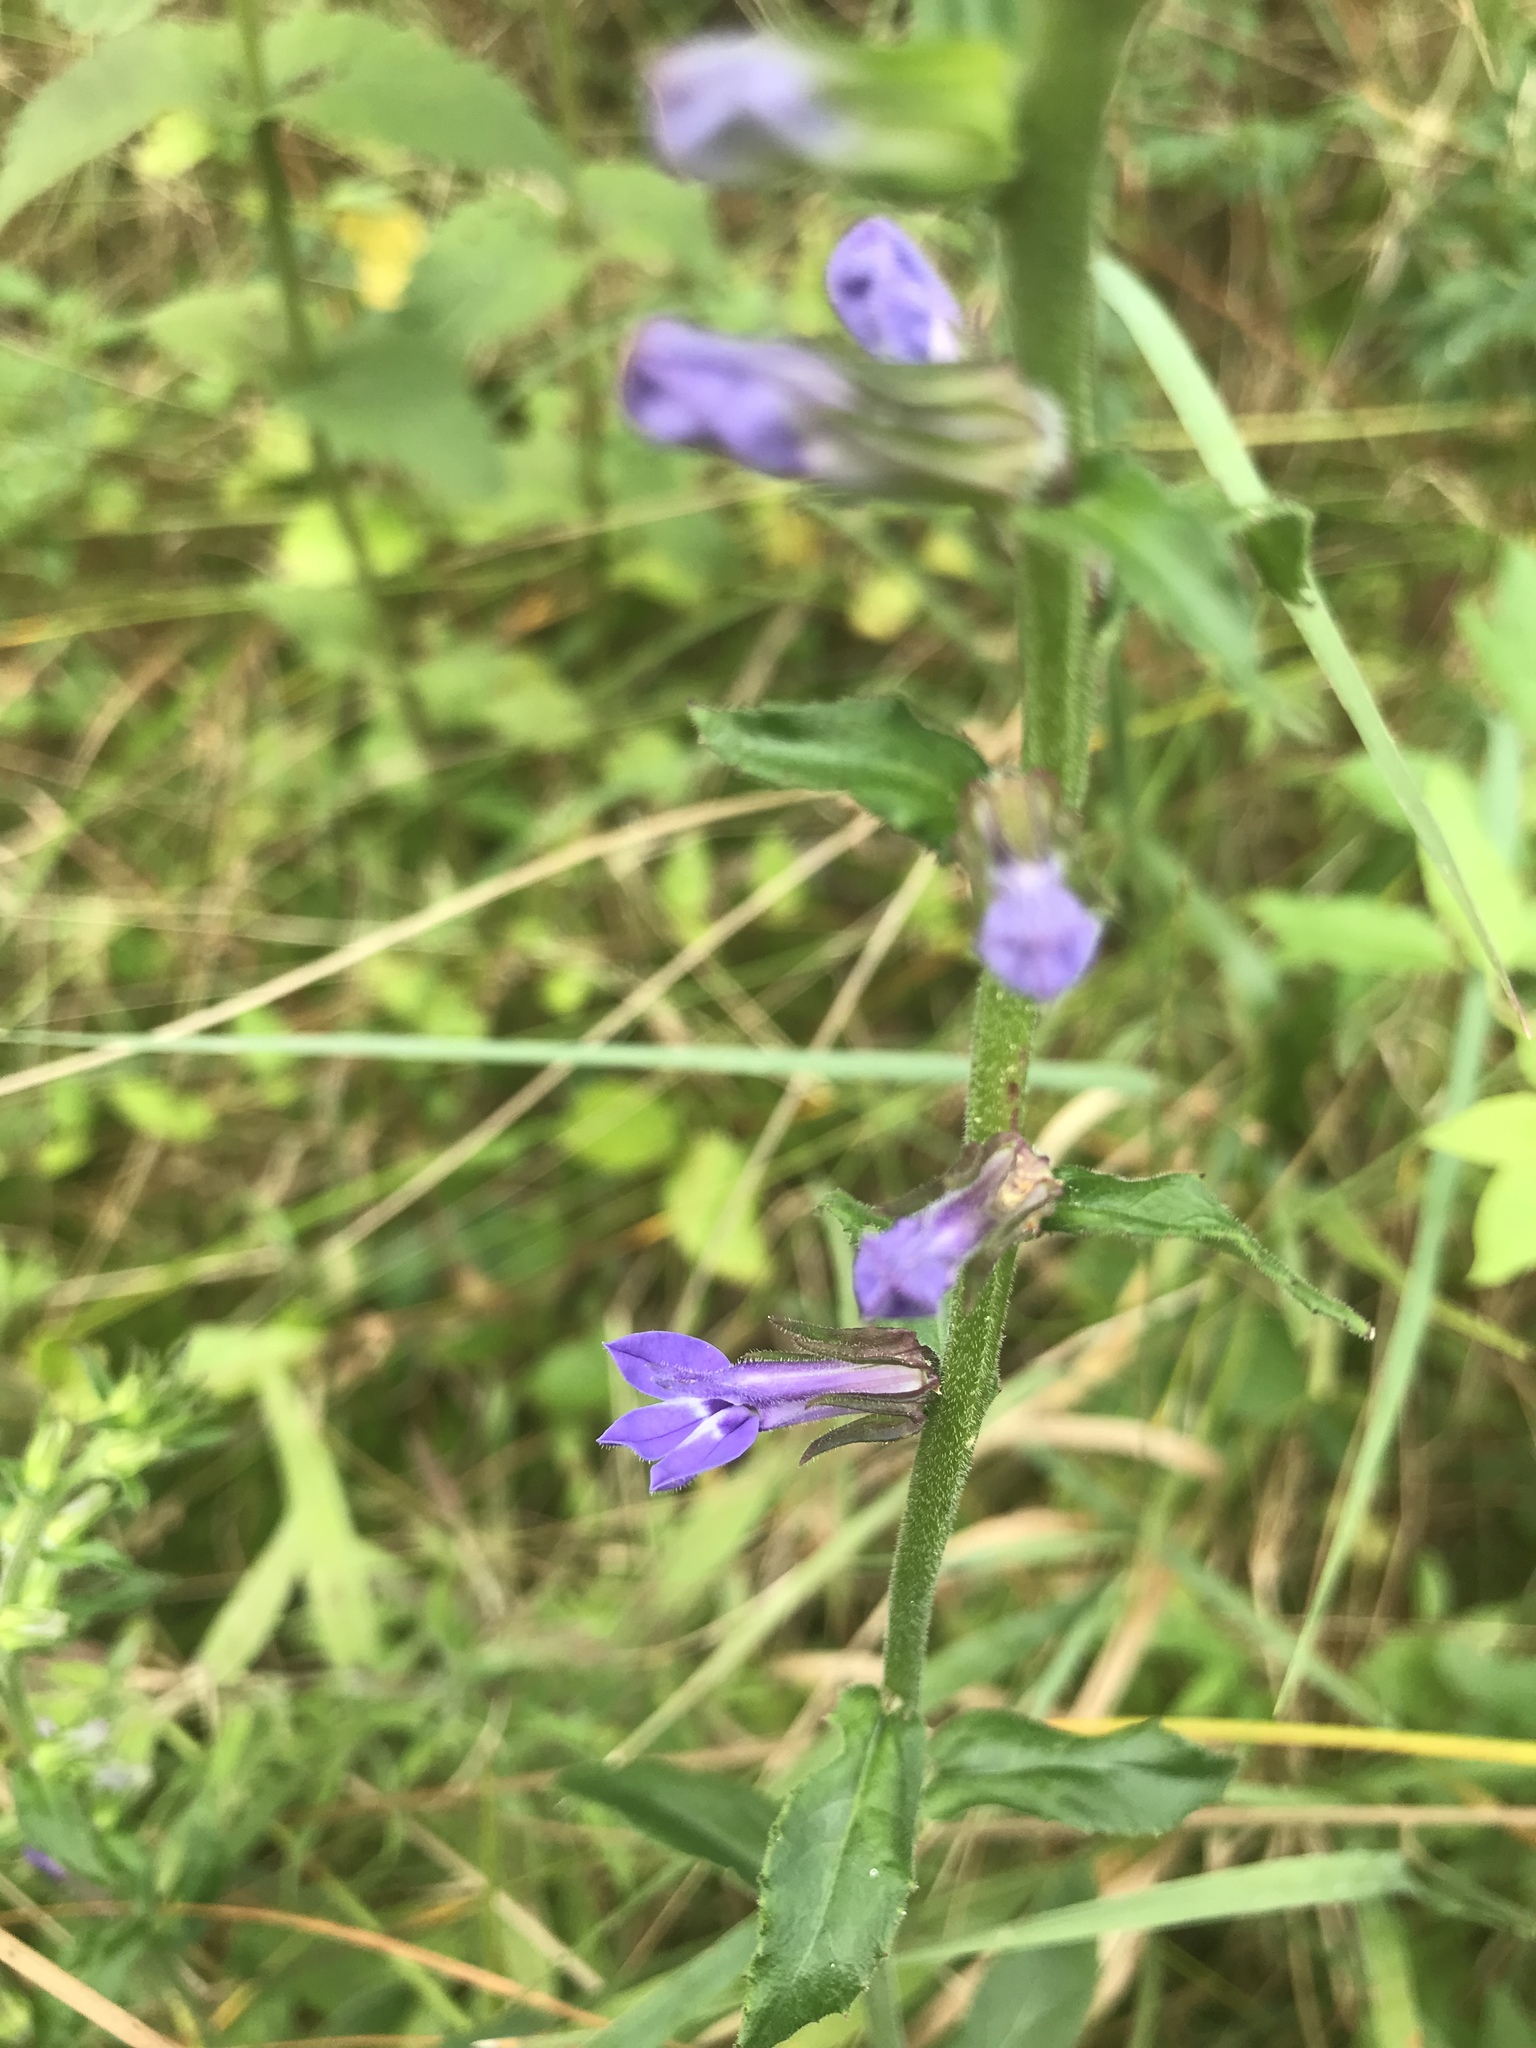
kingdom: Plantae
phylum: Tracheophyta
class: Magnoliopsida
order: Asterales
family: Campanulaceae
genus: Lobelia
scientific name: Lobelia puberula
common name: Purple dewdrop
